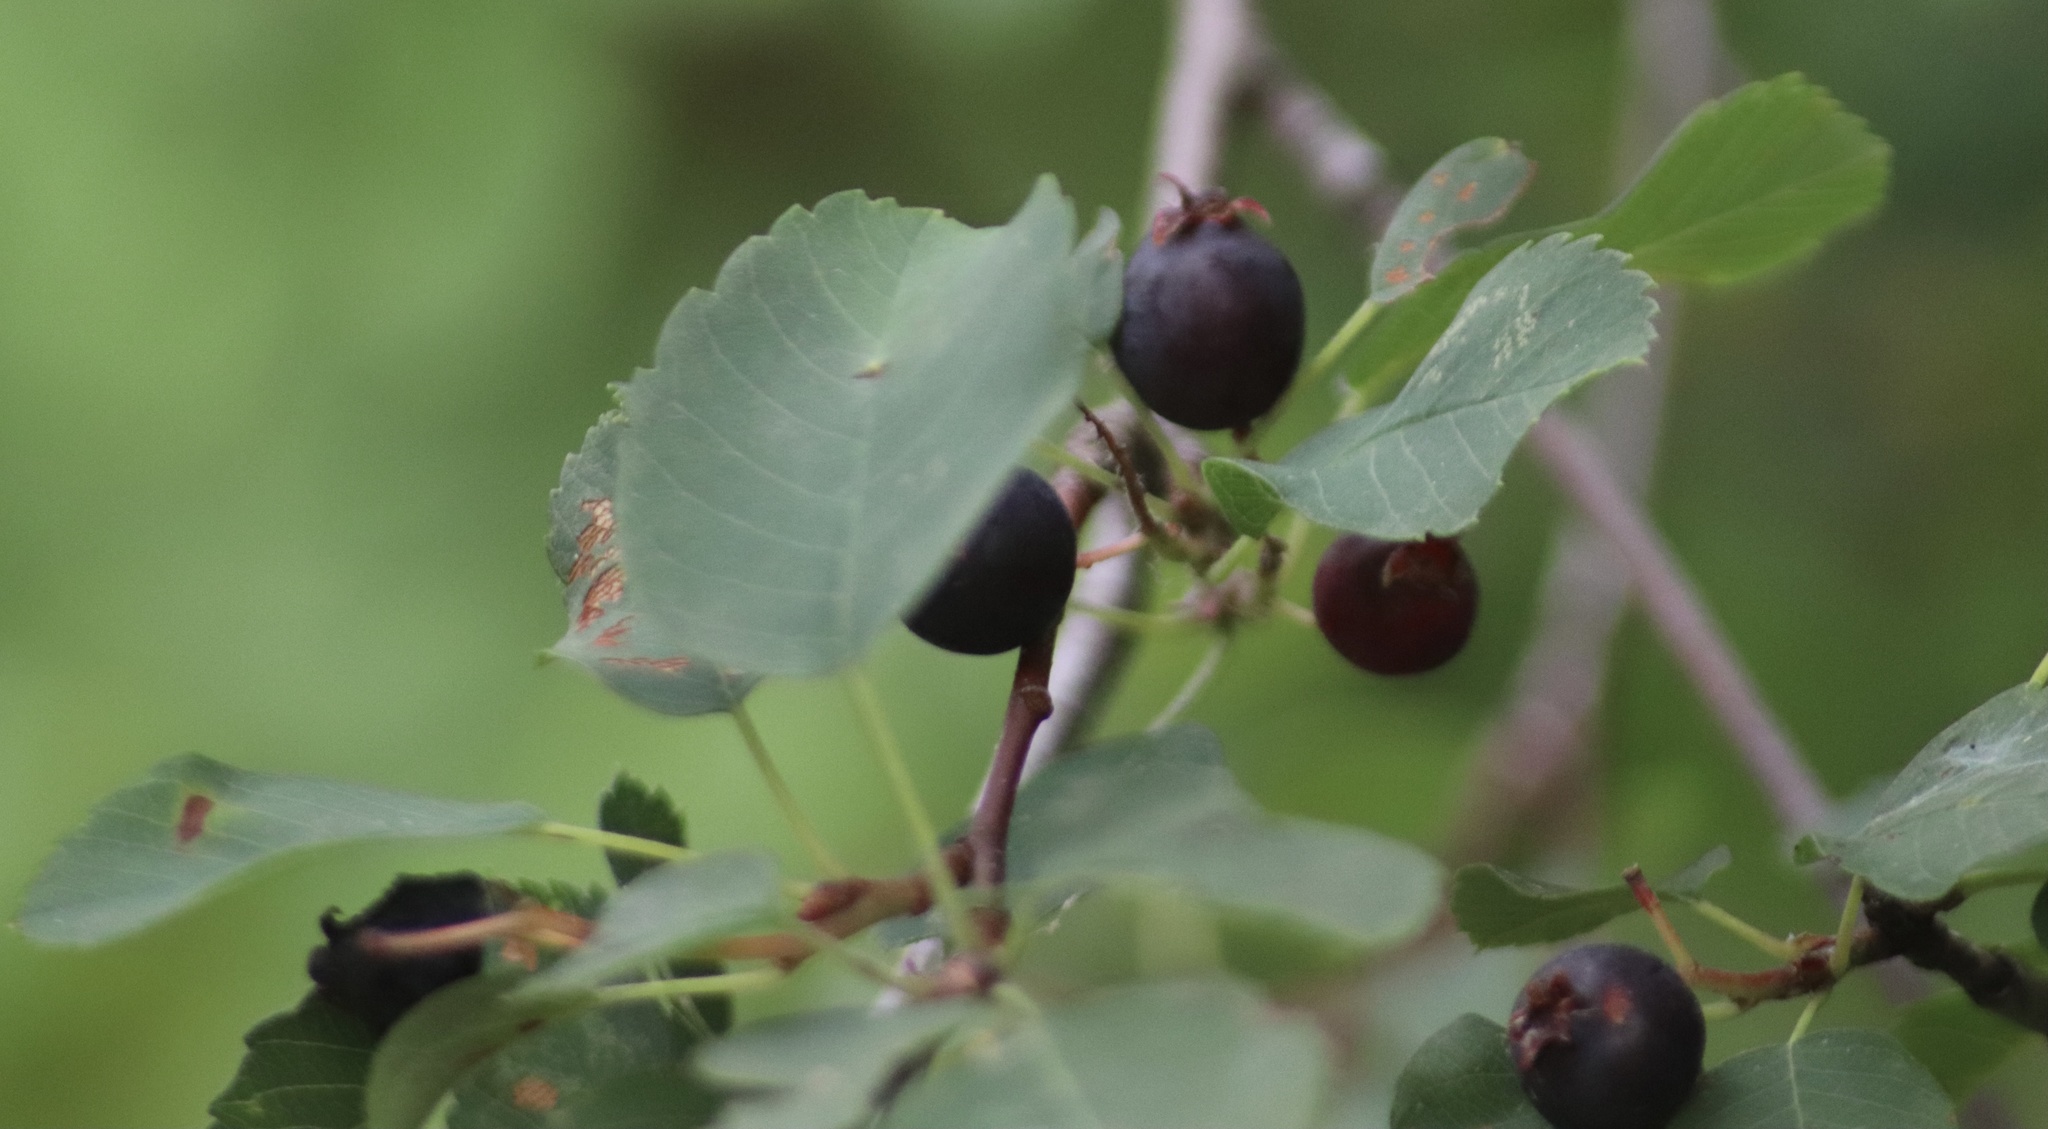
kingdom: Plantae
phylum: Tracheophyta
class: Magnoliopsida
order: Rosales
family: Rosaceae
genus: Amelanchier
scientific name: Amelanchier alnifolia
